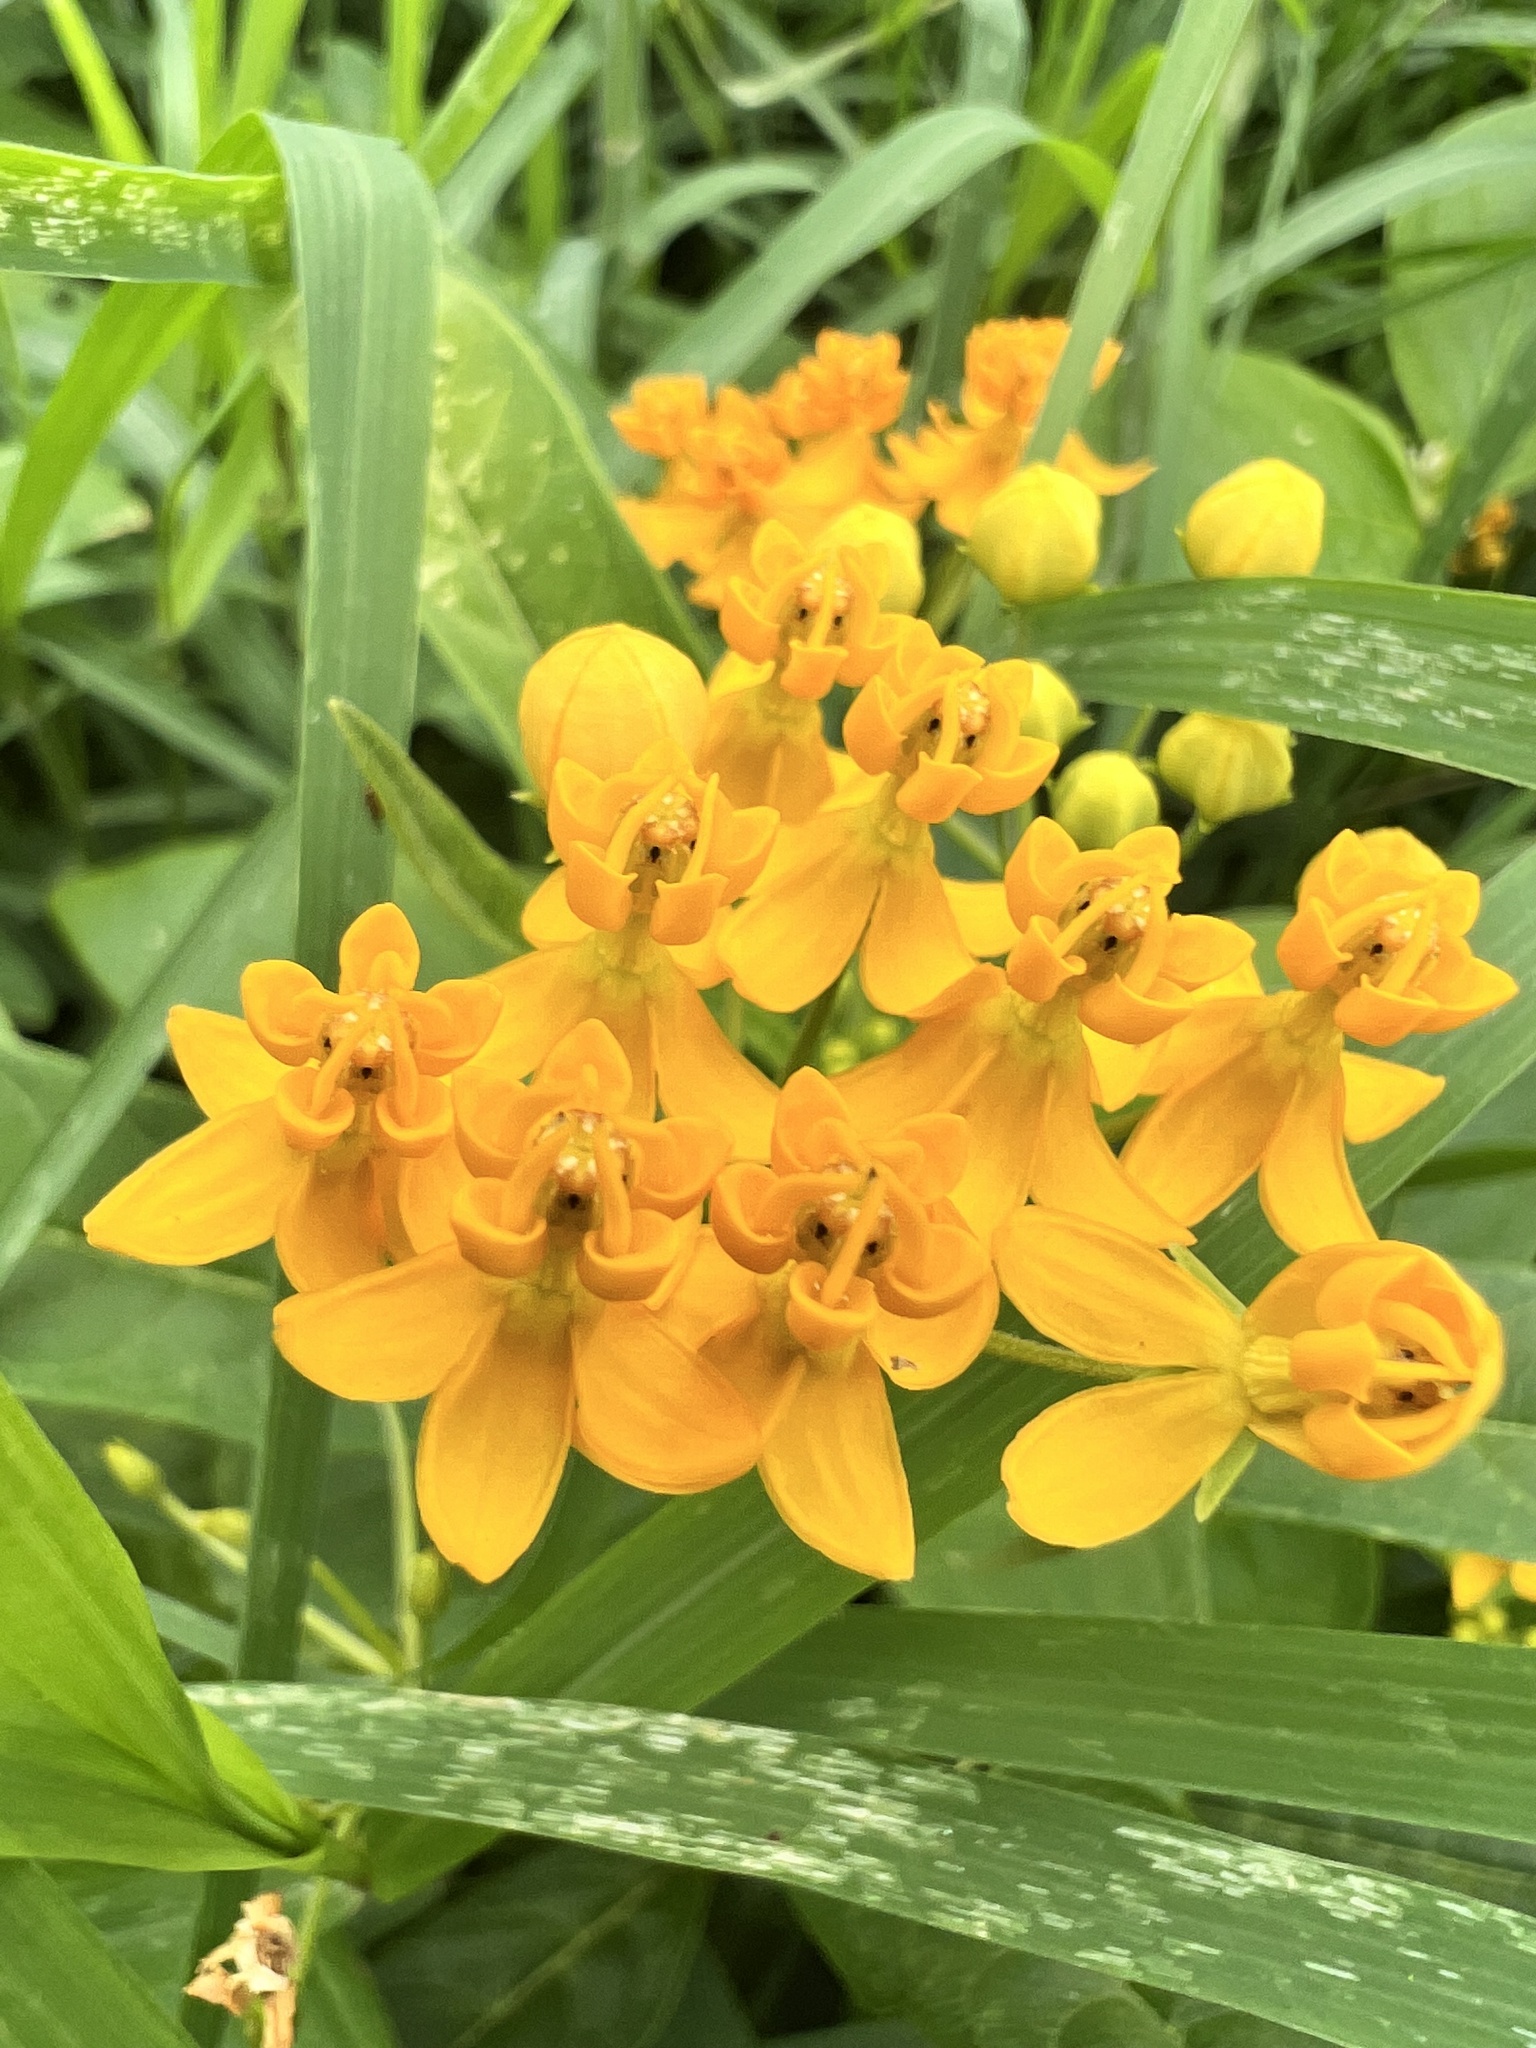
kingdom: Plantae
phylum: Tracheophyta
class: Magnoliopsida
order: Gentianales
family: Apocynaceae
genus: Asclepias
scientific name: Asclepias curassavica
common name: Bloodflower
